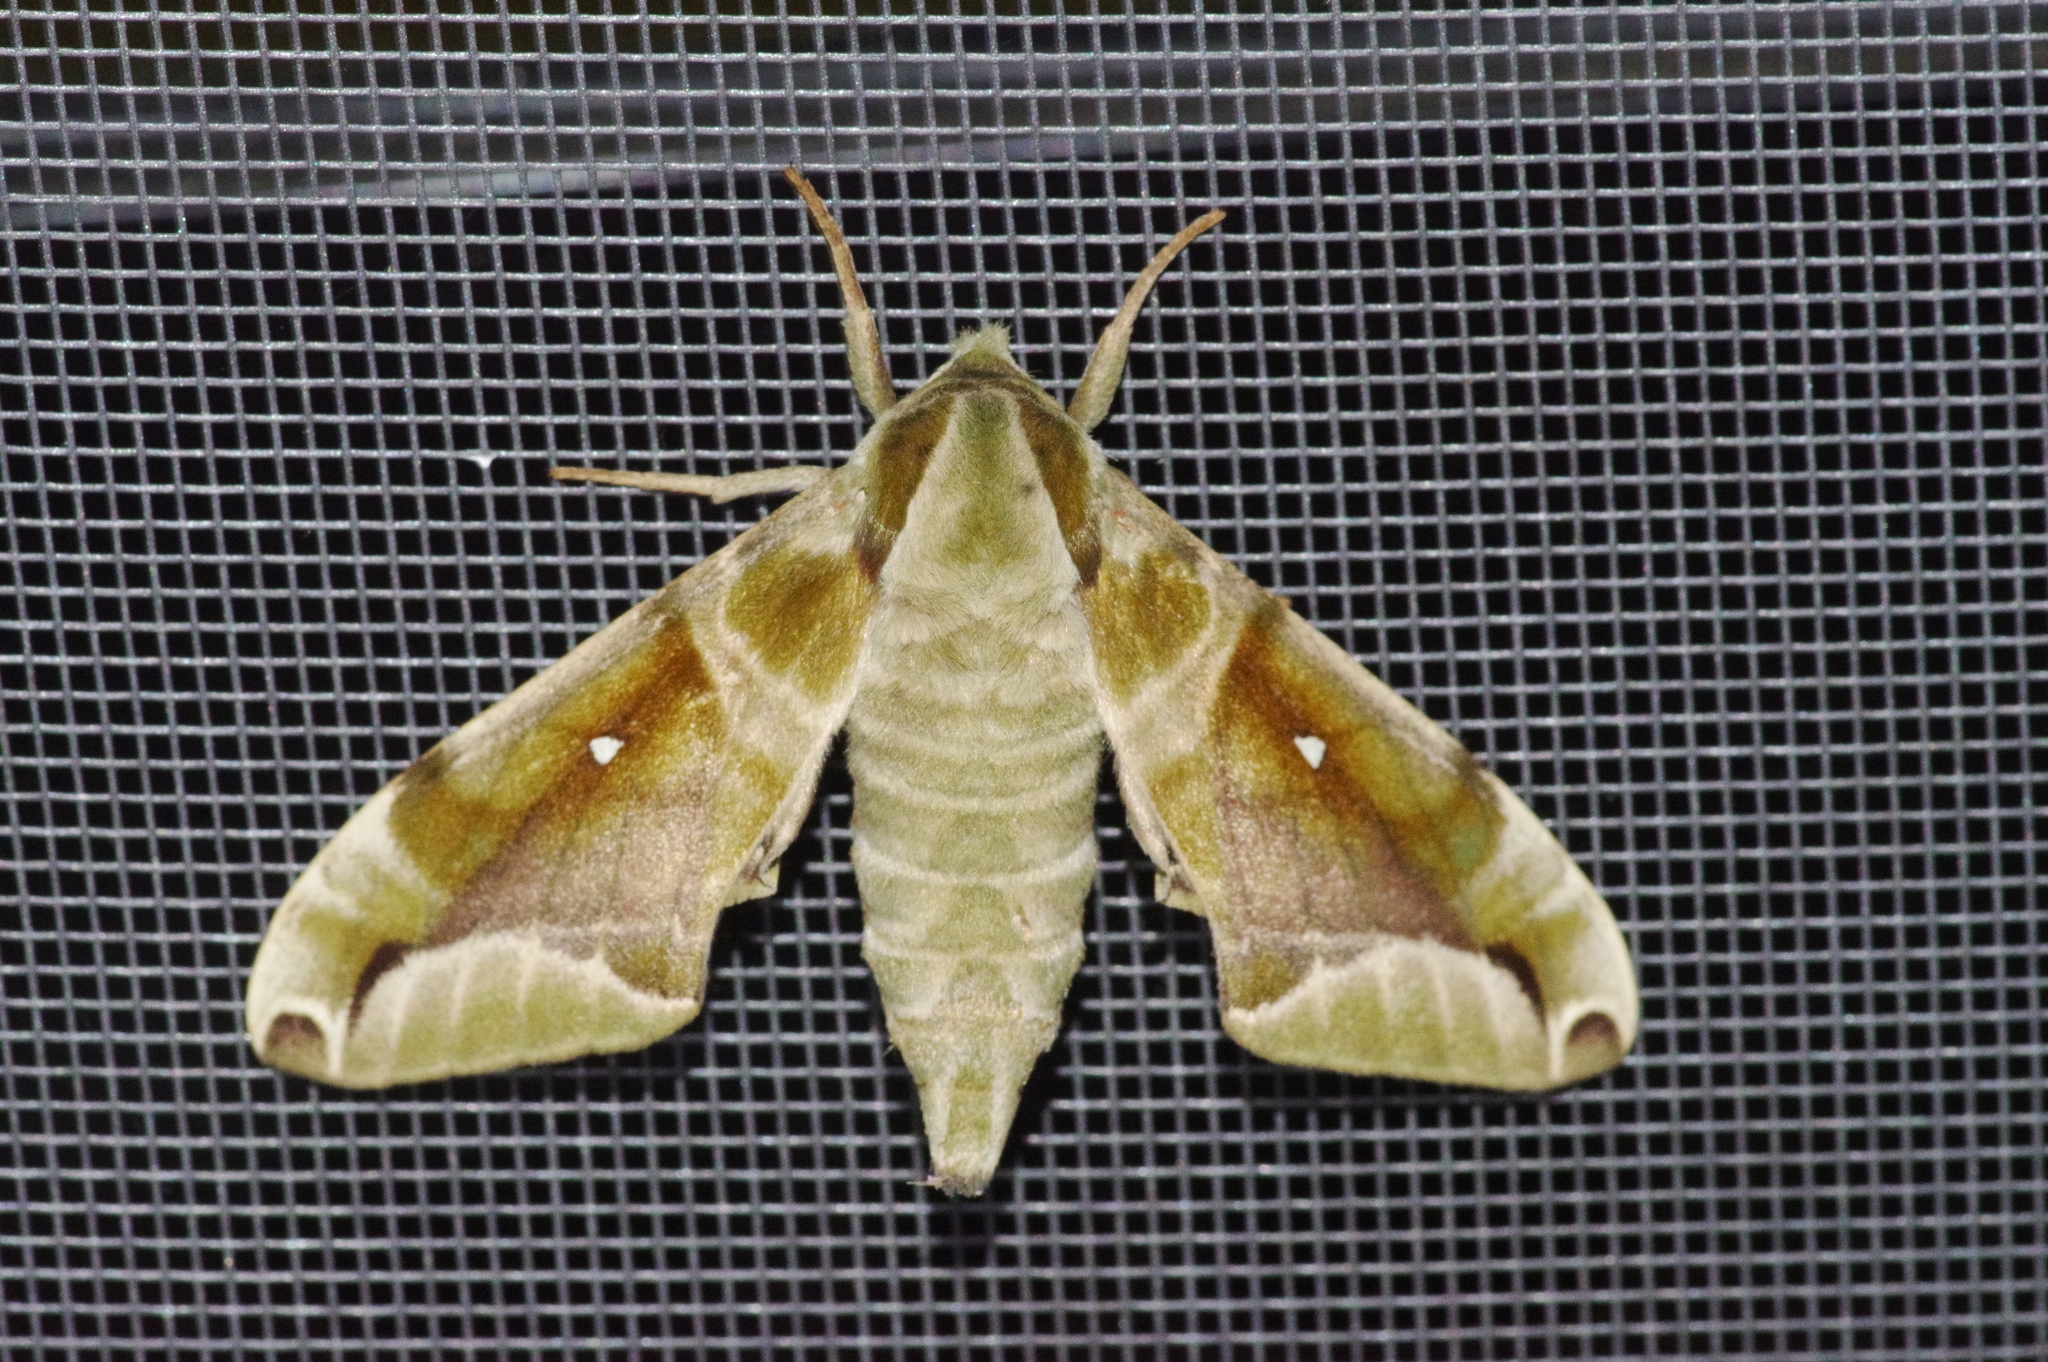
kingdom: Animalia
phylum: Arthropoda
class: Insecta
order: Lepidoptera
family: Sphingidae
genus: Parum
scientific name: Parum colligata
